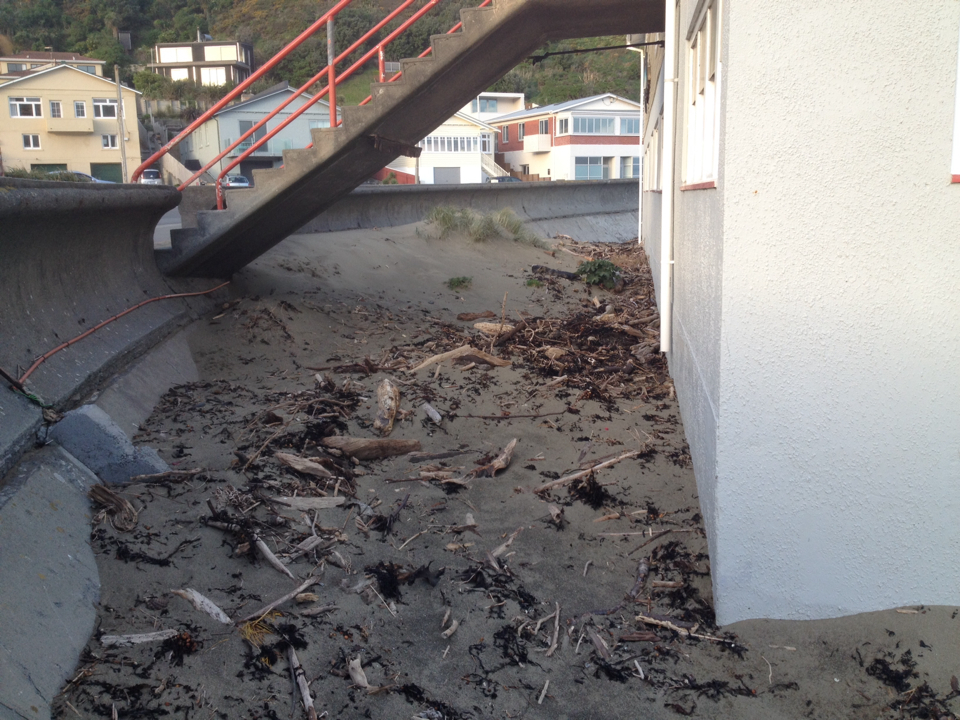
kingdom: Plantae
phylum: Tracheophyta
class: Liliopsida
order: Poales
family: Poaceae
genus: Spinifex
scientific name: Spinifex sericeus
